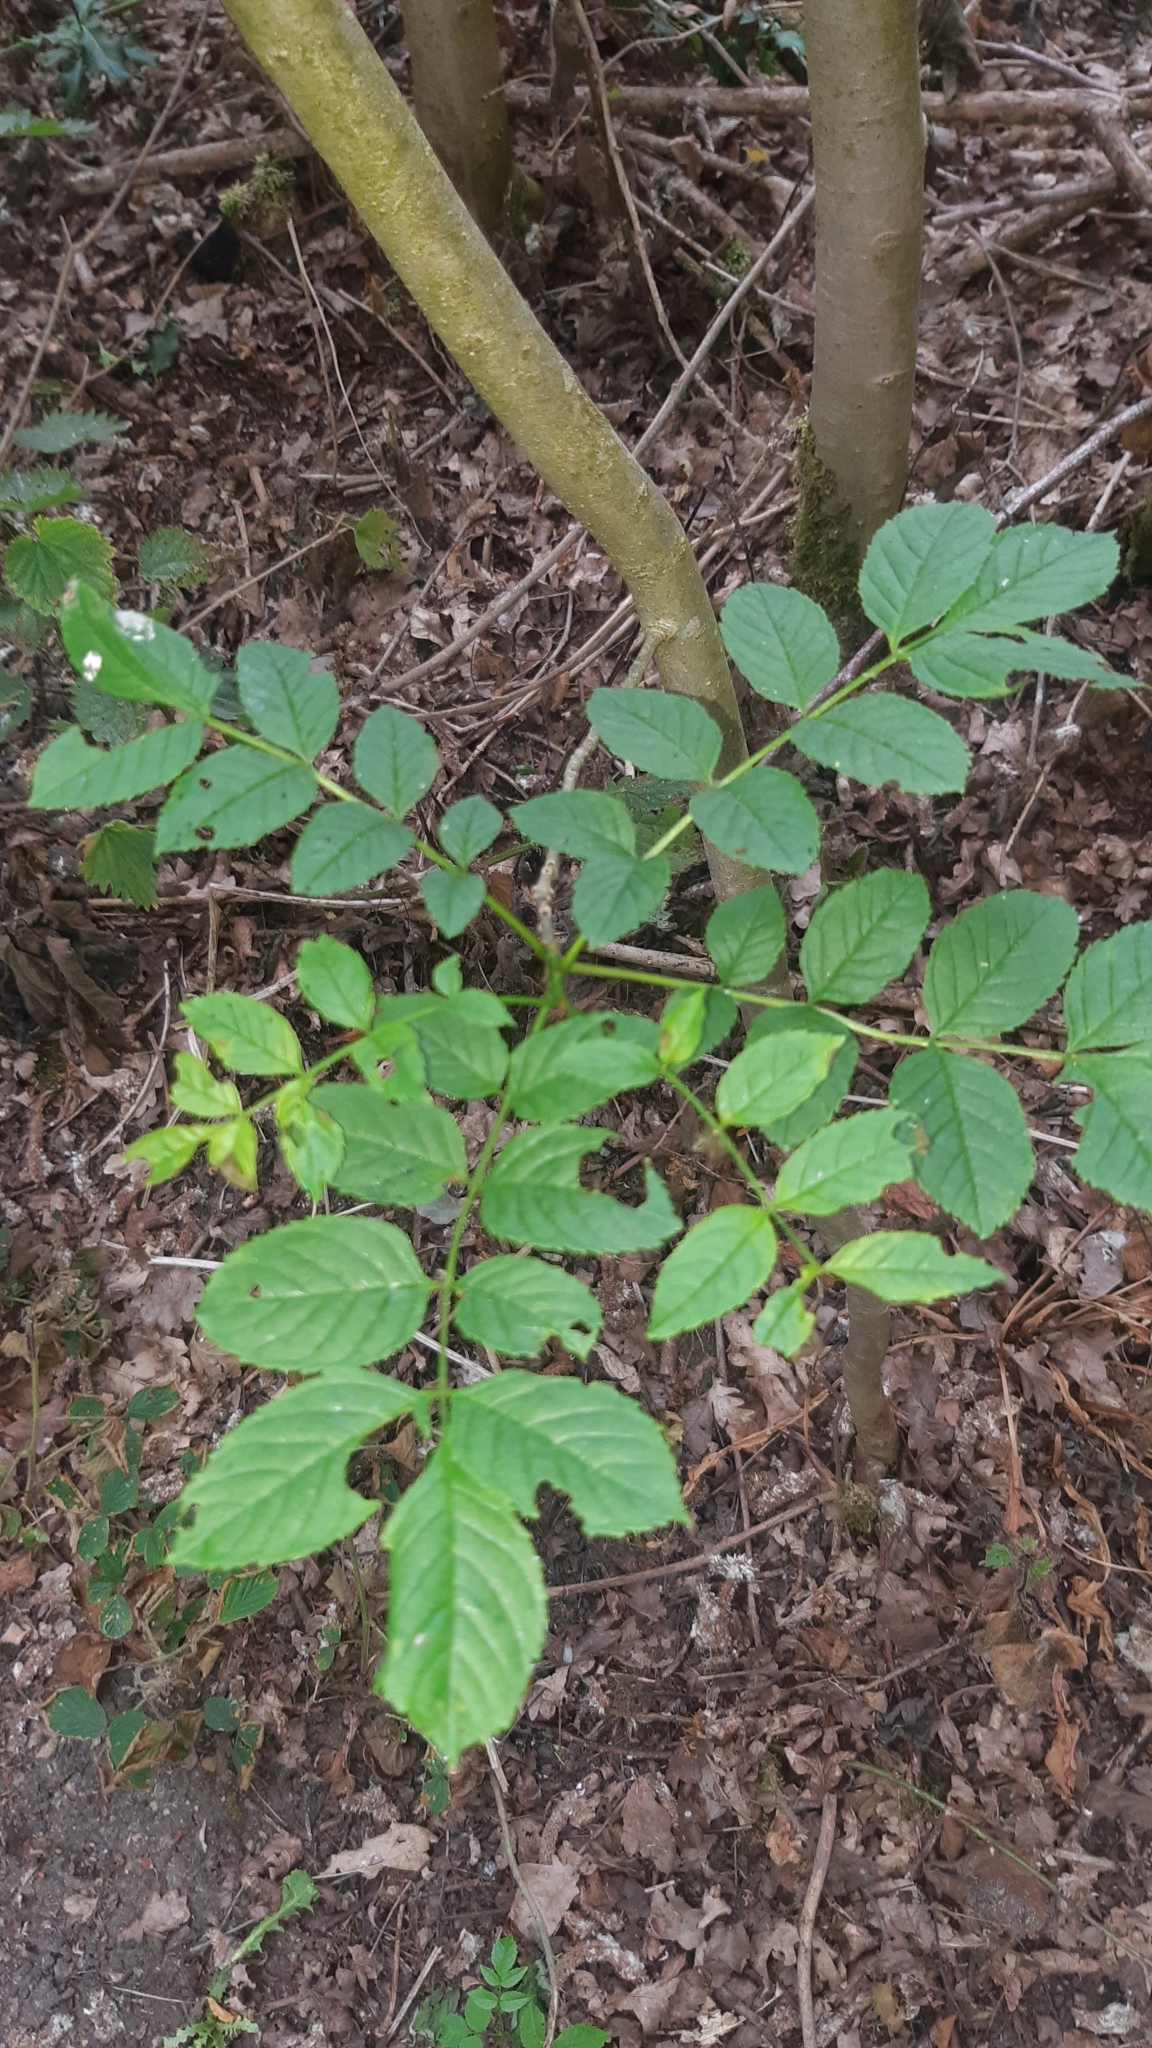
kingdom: Plantae
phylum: Tracheophyta
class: Magnoliopsida
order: Lamiales
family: Oleaceae
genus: Fraxinus
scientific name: Fraxinus excelsior
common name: European ash
